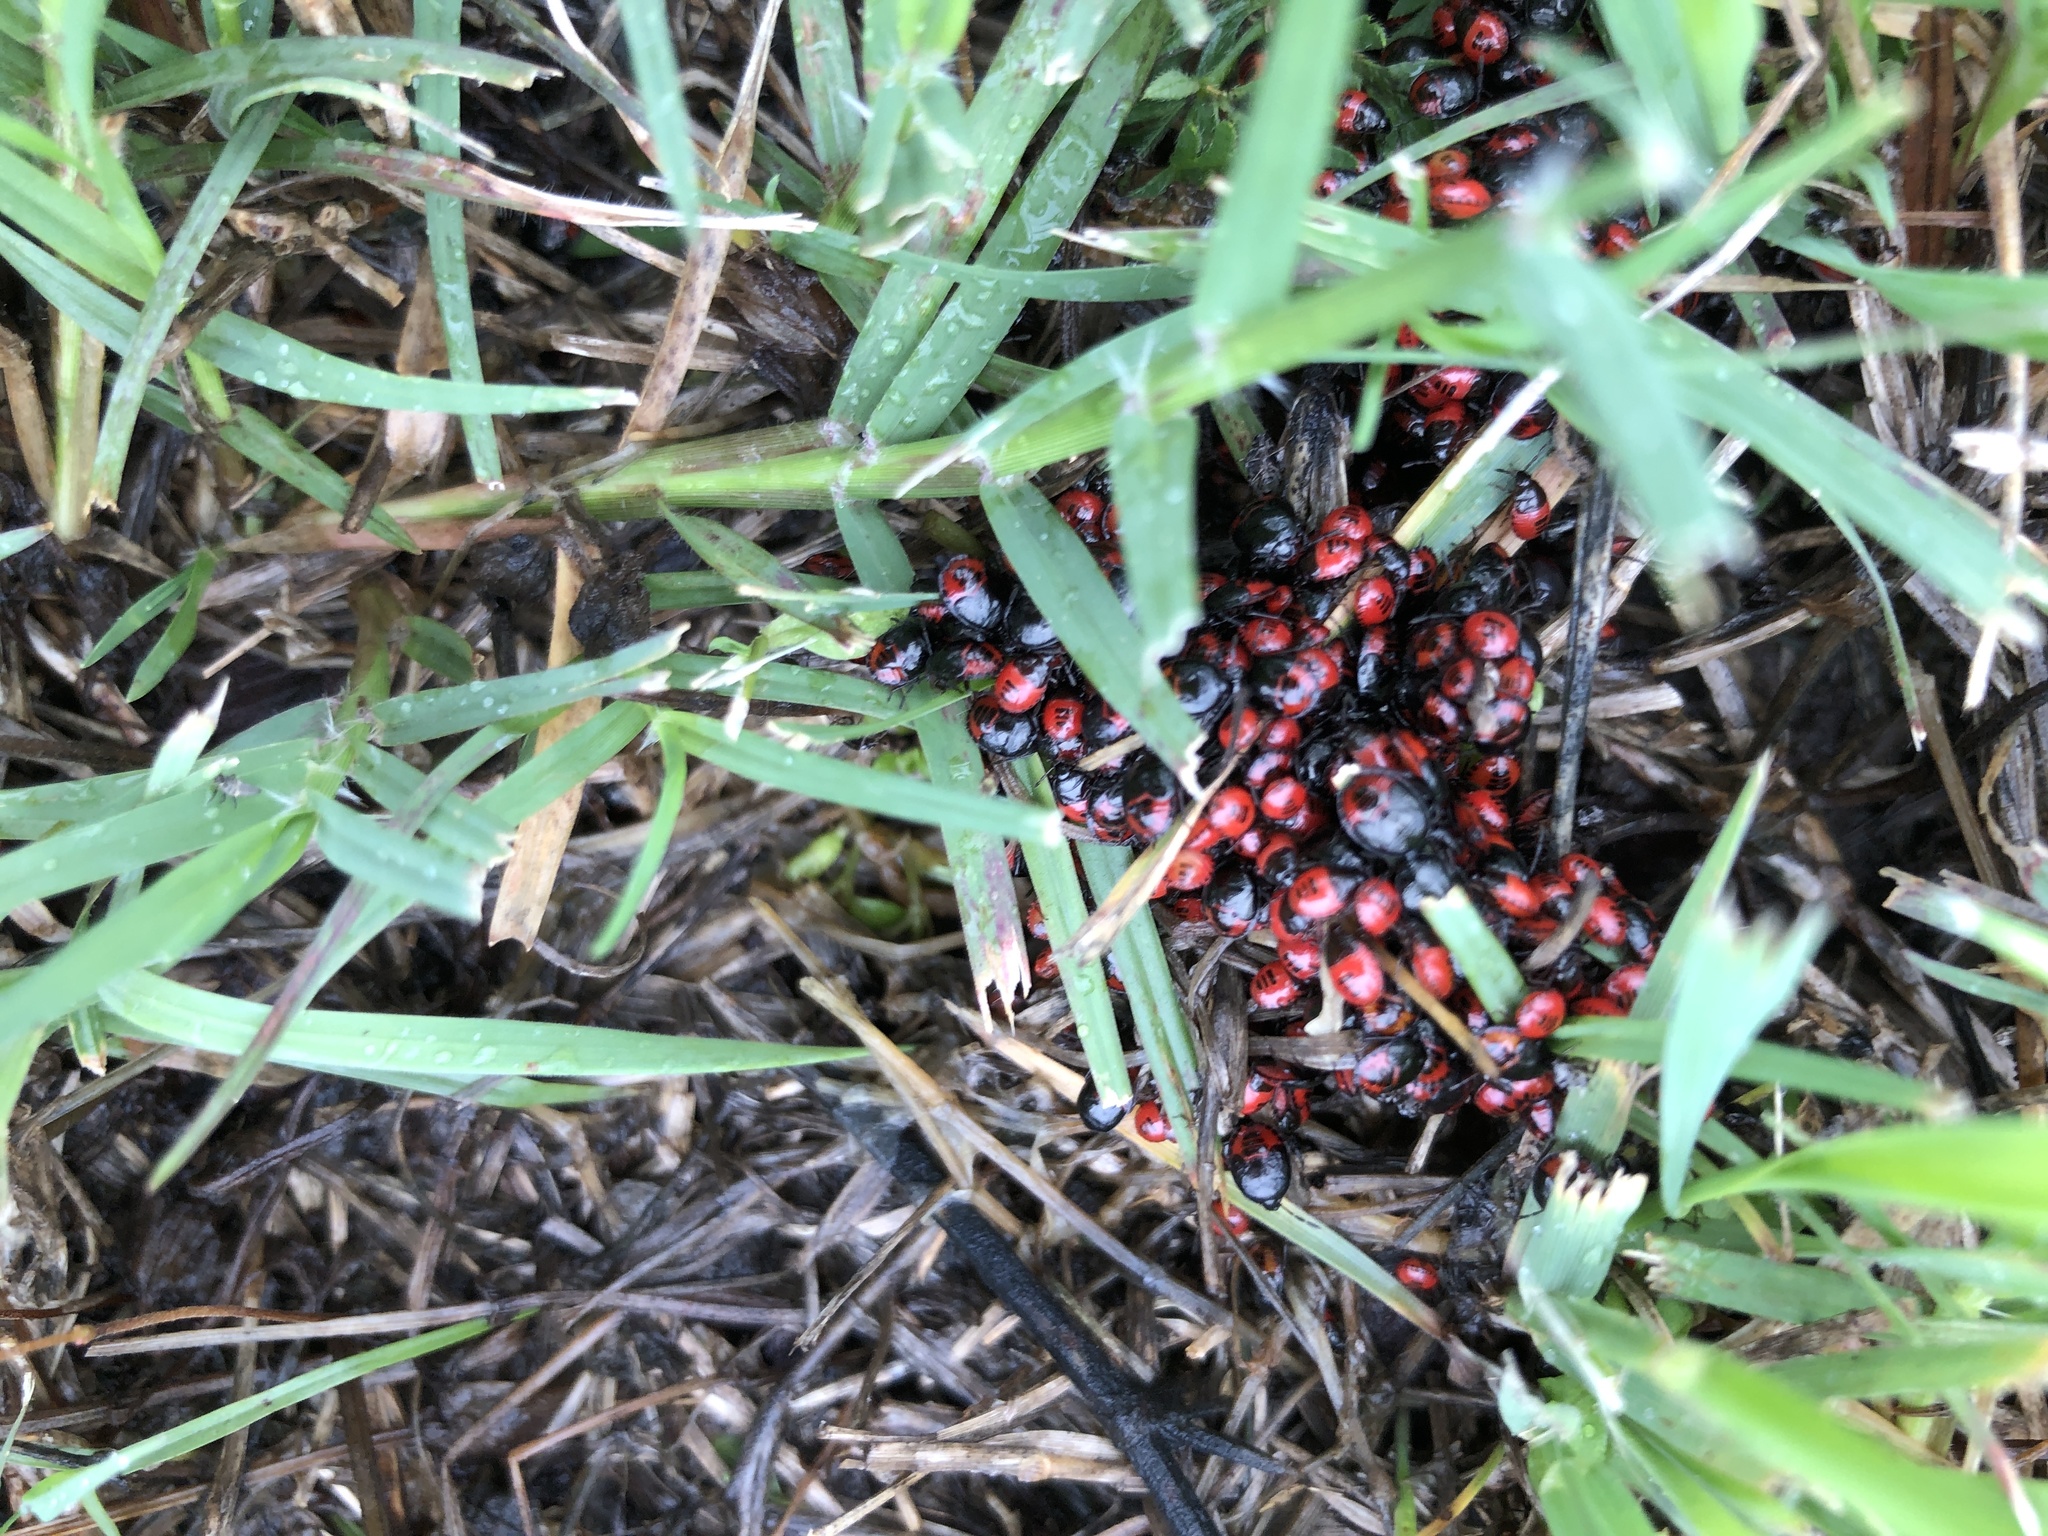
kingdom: Animalia
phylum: Arthropoda
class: Insecta
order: Hemiptera
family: Cydnidae
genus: Sehirus
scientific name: Sehirus cinctus
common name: White-margined burrower bug
